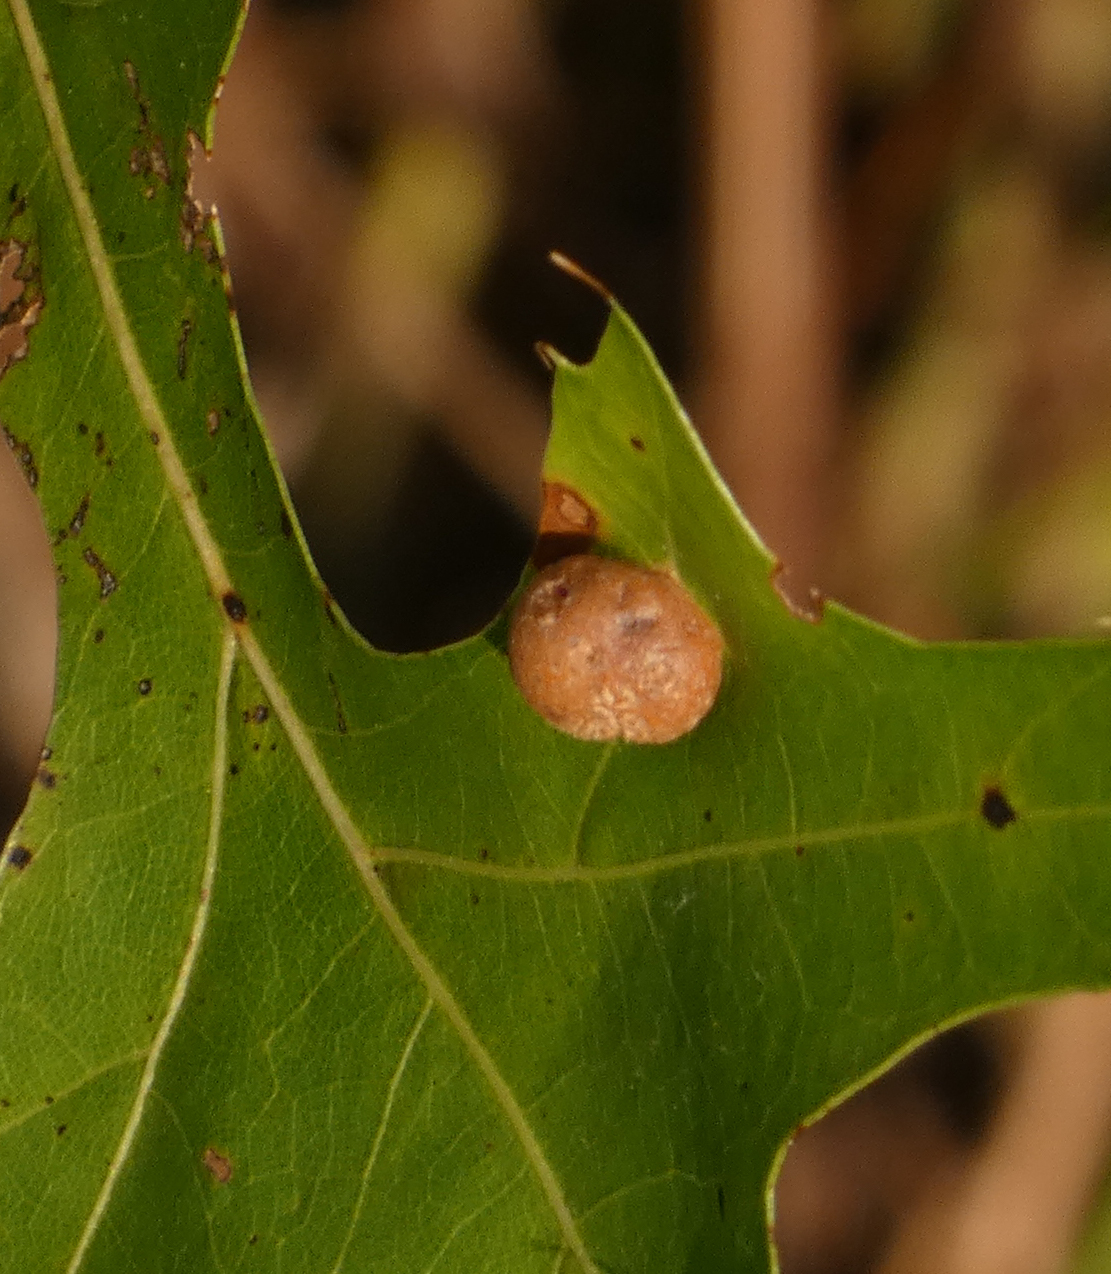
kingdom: Animalia
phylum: Arthropoda
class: Insecta
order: Diptera
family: Cecidomyiidae
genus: Polystepha
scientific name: Polystepha pilulae
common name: Oak leaf gall midge
